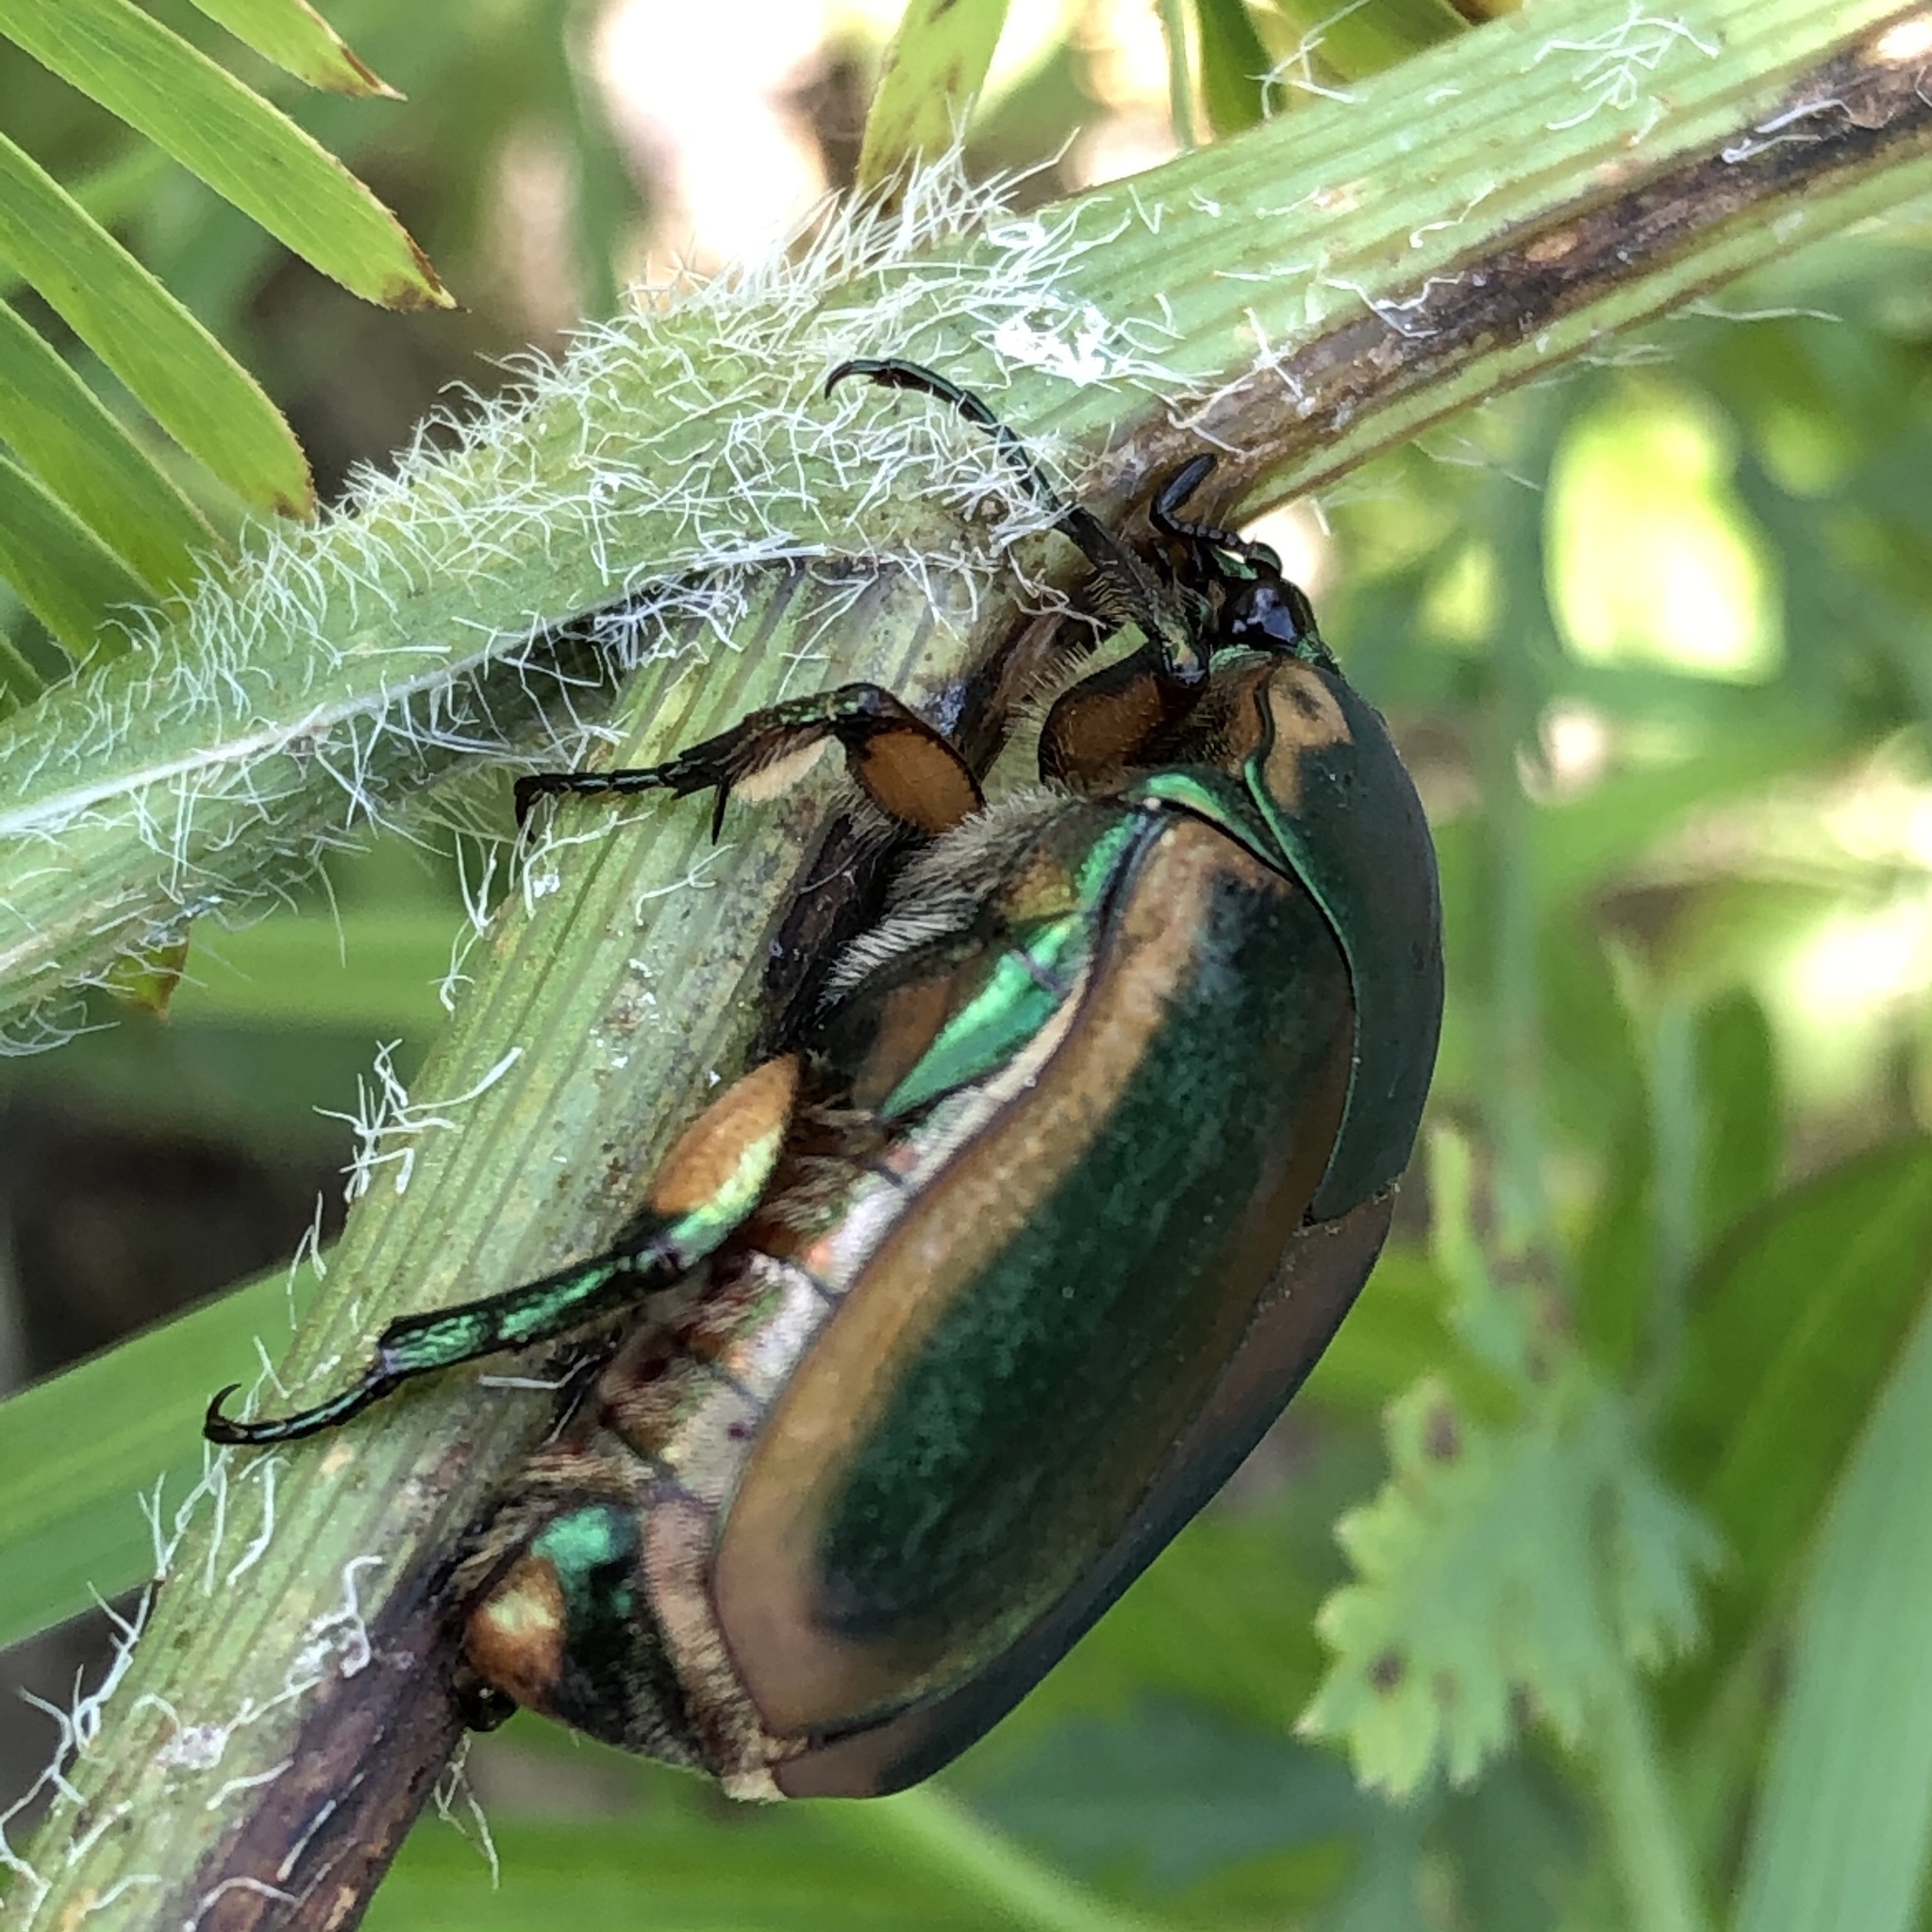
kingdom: Animalia
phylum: Arthropoda
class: Insecta
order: Coleoptera
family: Scarabaeidae
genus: Cotinis
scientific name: Cotinis nitida
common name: Common green june beetle
